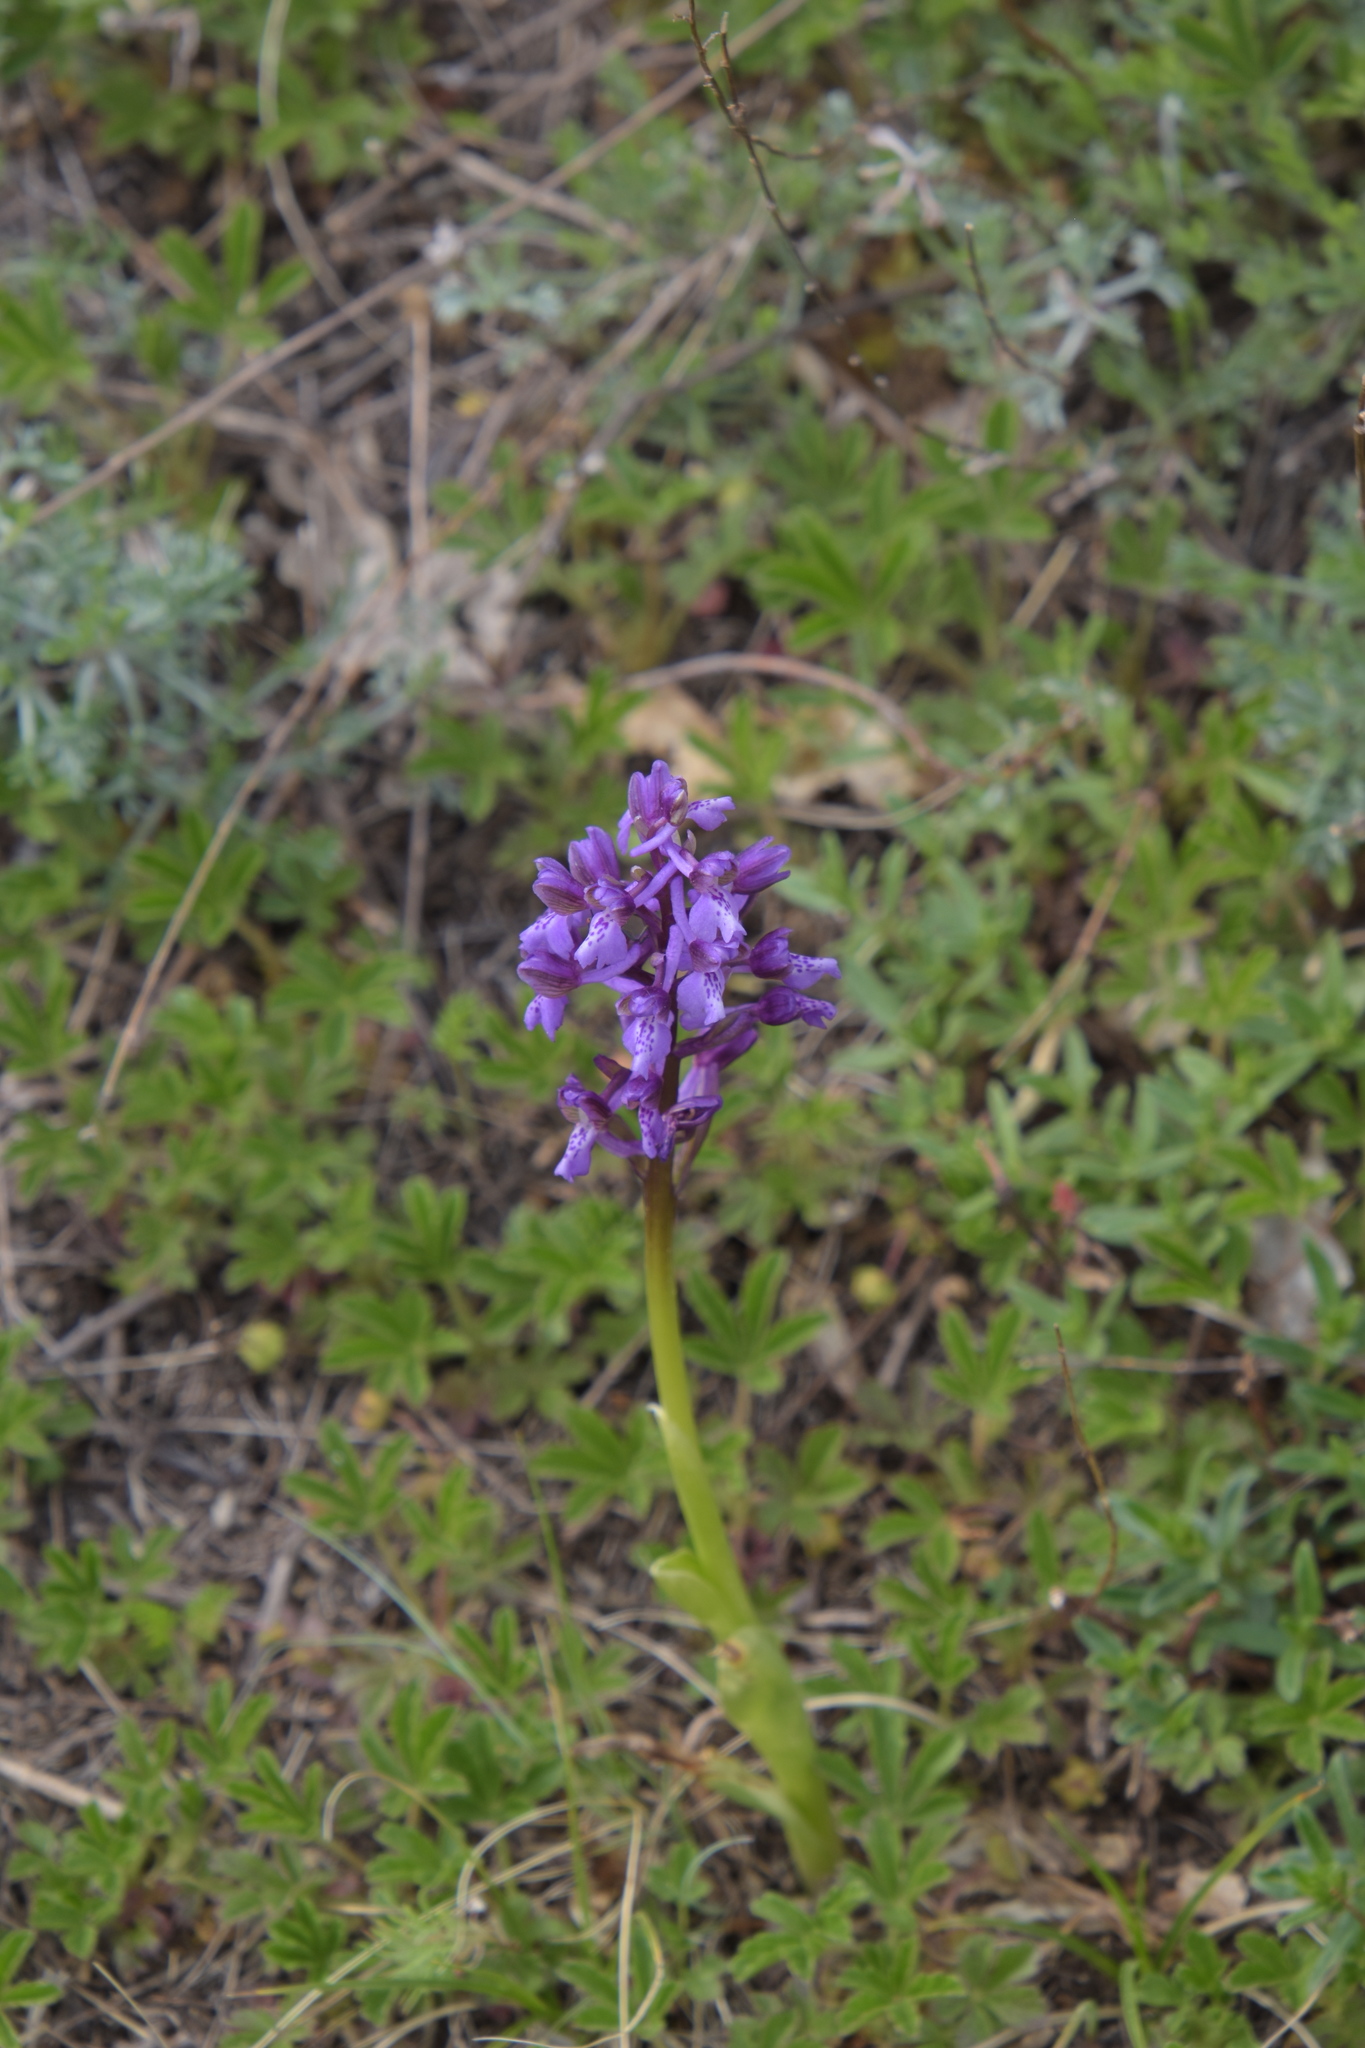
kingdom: Plantae
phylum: Tracheophyta
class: Liliopsida
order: Asparagales
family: Orchidaceae
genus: Anacamptis
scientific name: Anacamptis morio
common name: Green-winged orchid
